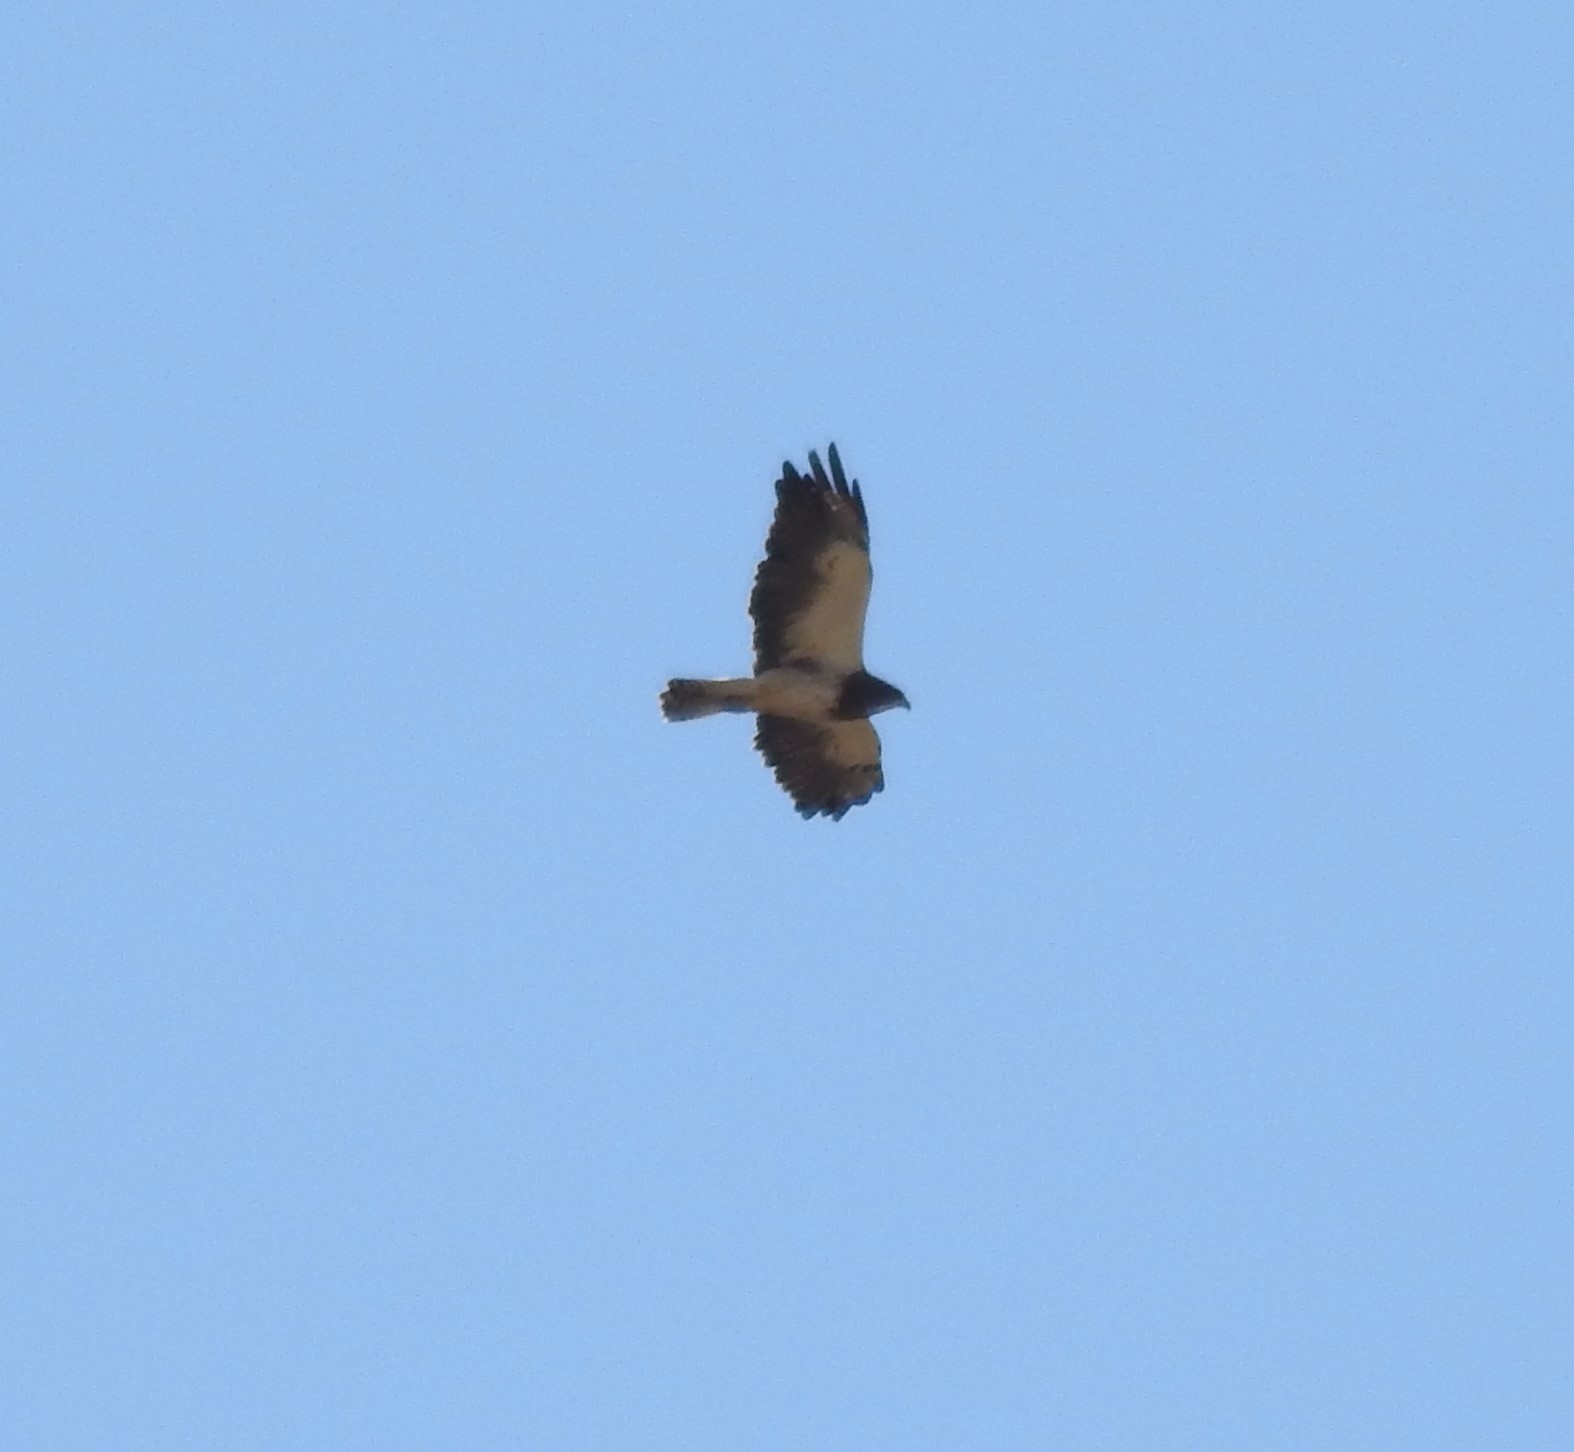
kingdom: Animalia
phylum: Chordata
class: Aves
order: Accipitriformes
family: Accipitridae
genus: Buteo
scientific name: Buteo swainsoni
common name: Swainson's hawk
